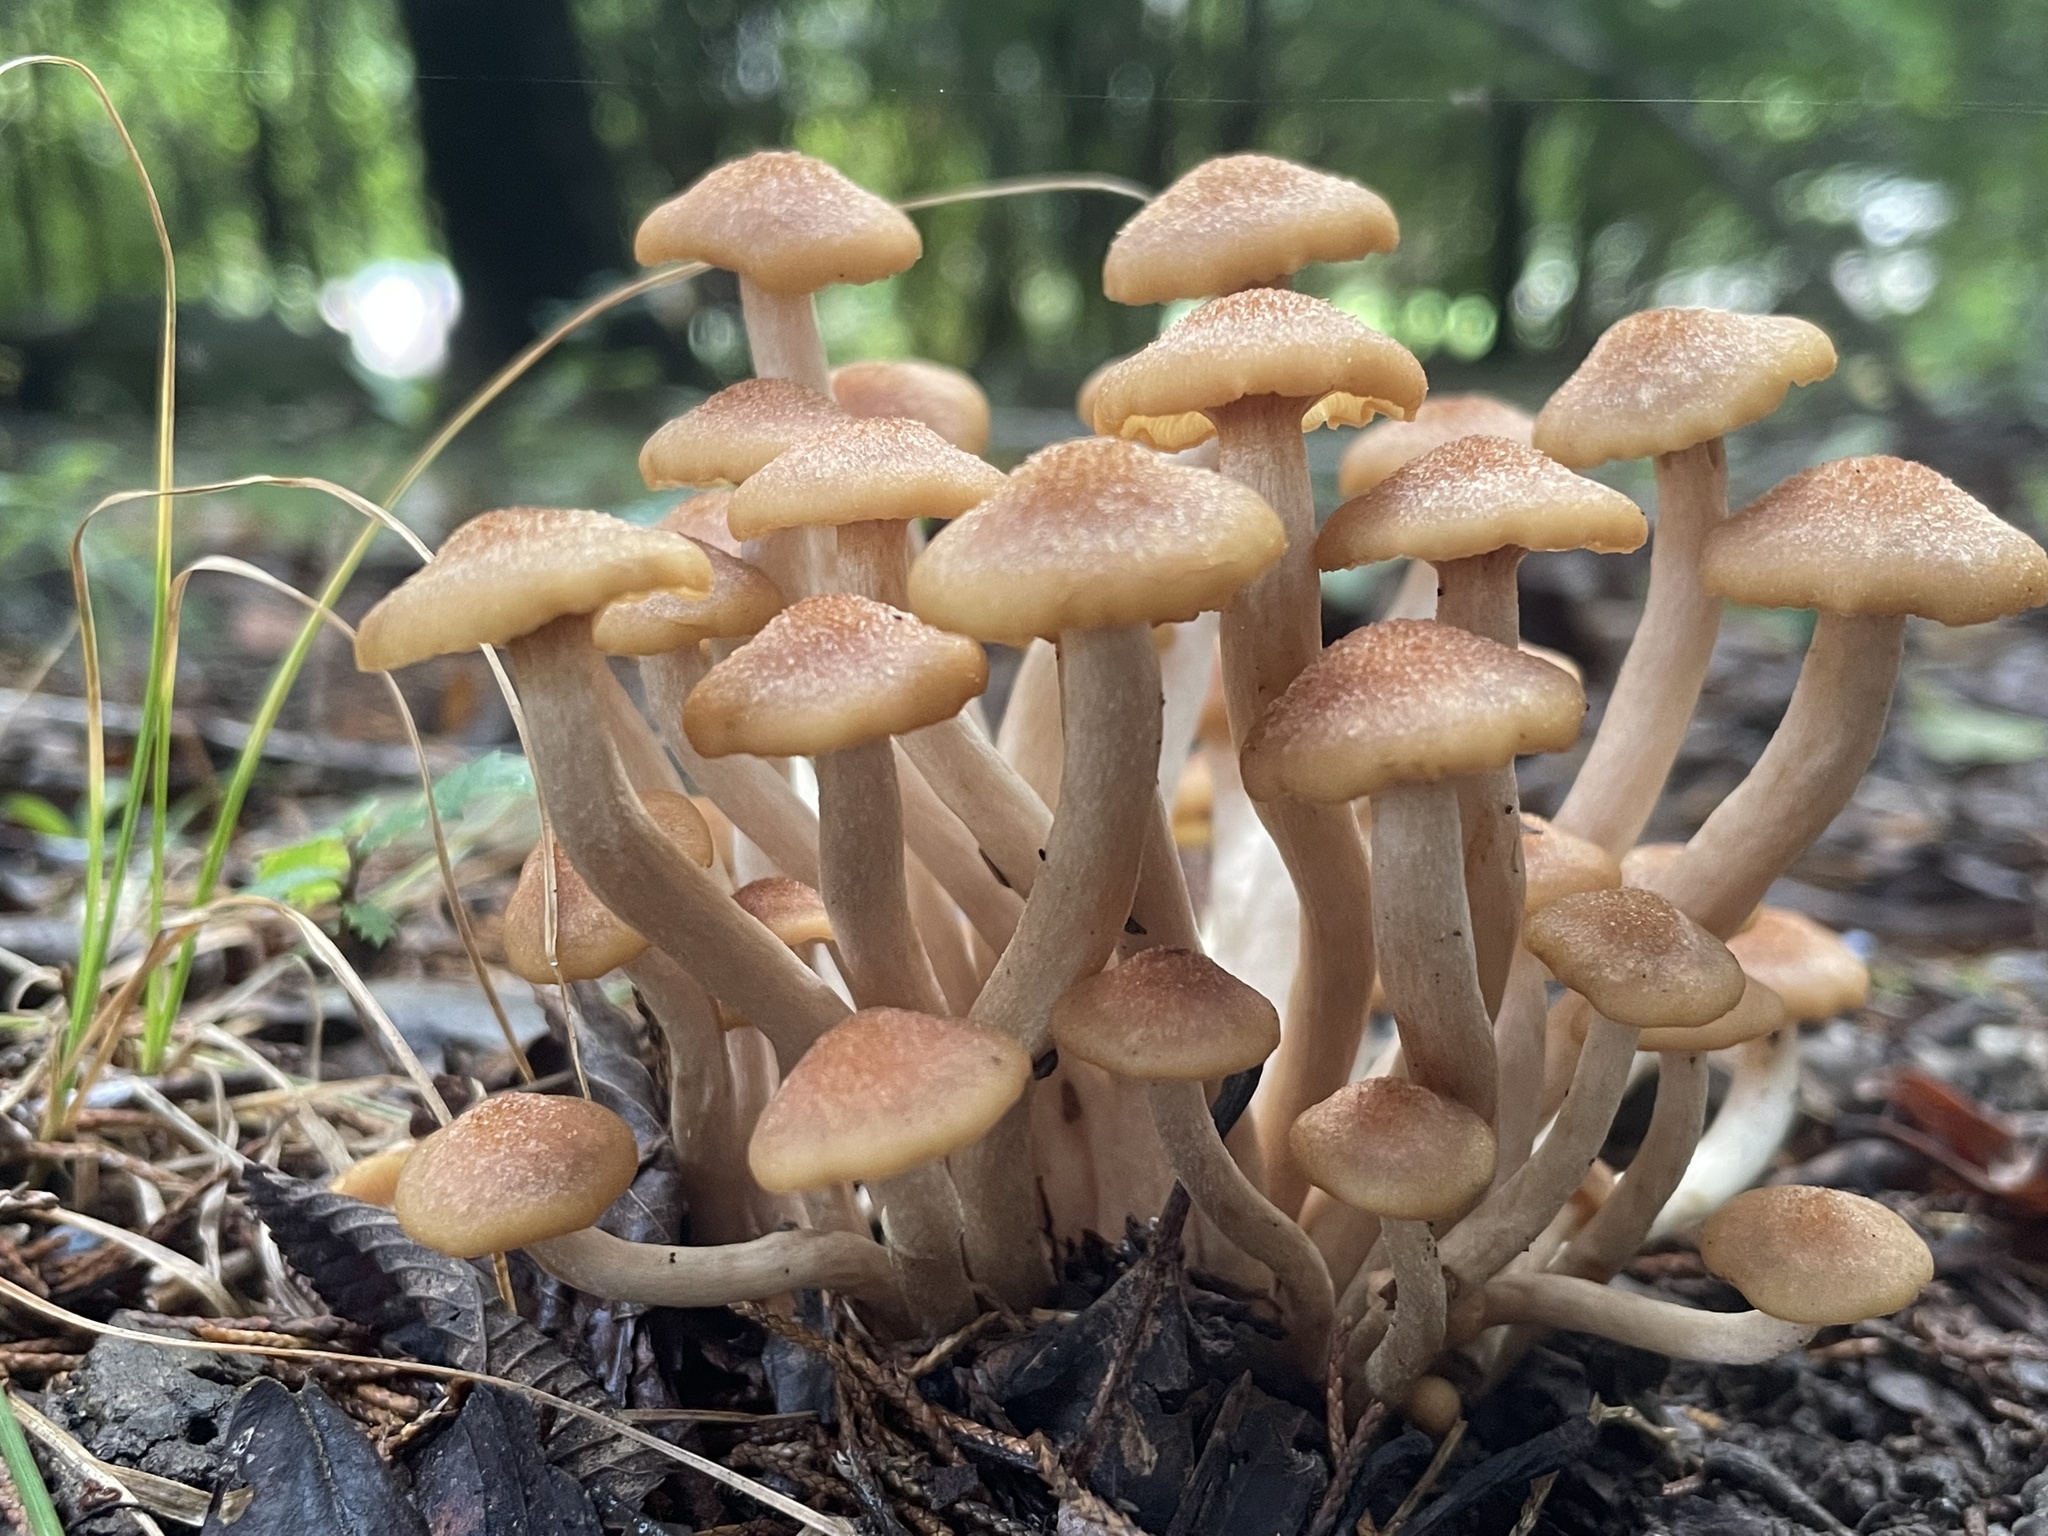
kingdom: Fungi
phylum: Basidiomycota
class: Agaricomycetes
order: Agaricales
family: Physalacriaceae
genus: Desarmillaria
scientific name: Desarmillaria caespitosa
